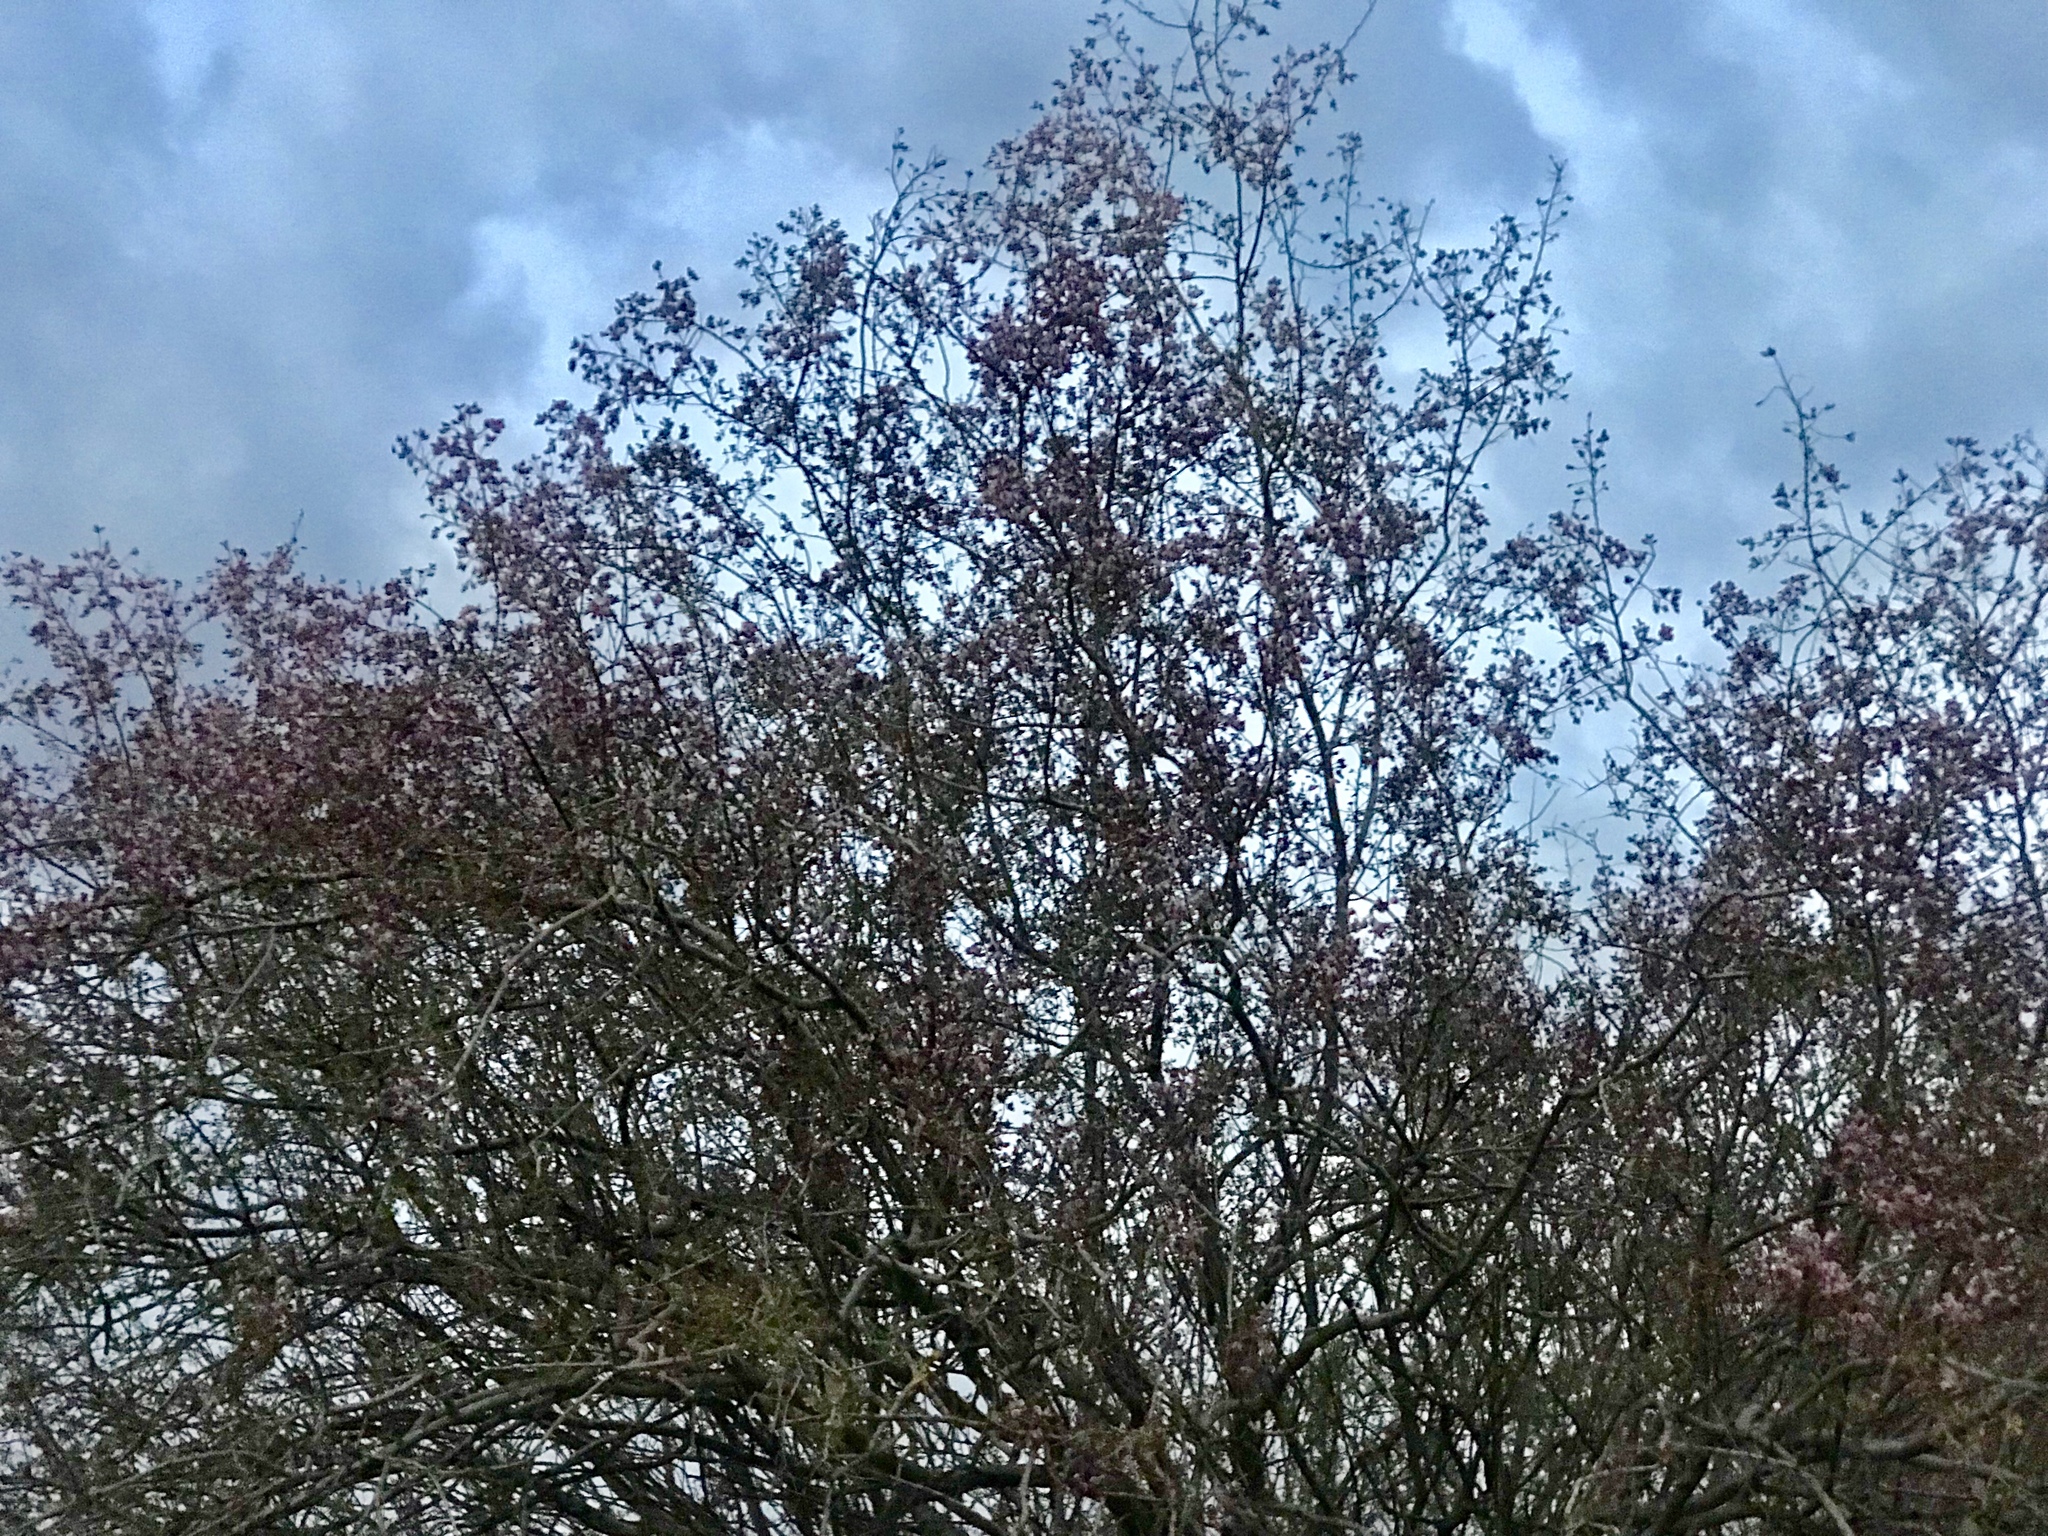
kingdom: Plantae
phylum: Tracheophyta
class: Magnoliopsida
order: Fabales
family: Fabaceae
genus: Olneya
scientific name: Olneya tesota
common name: Desert ironwood
